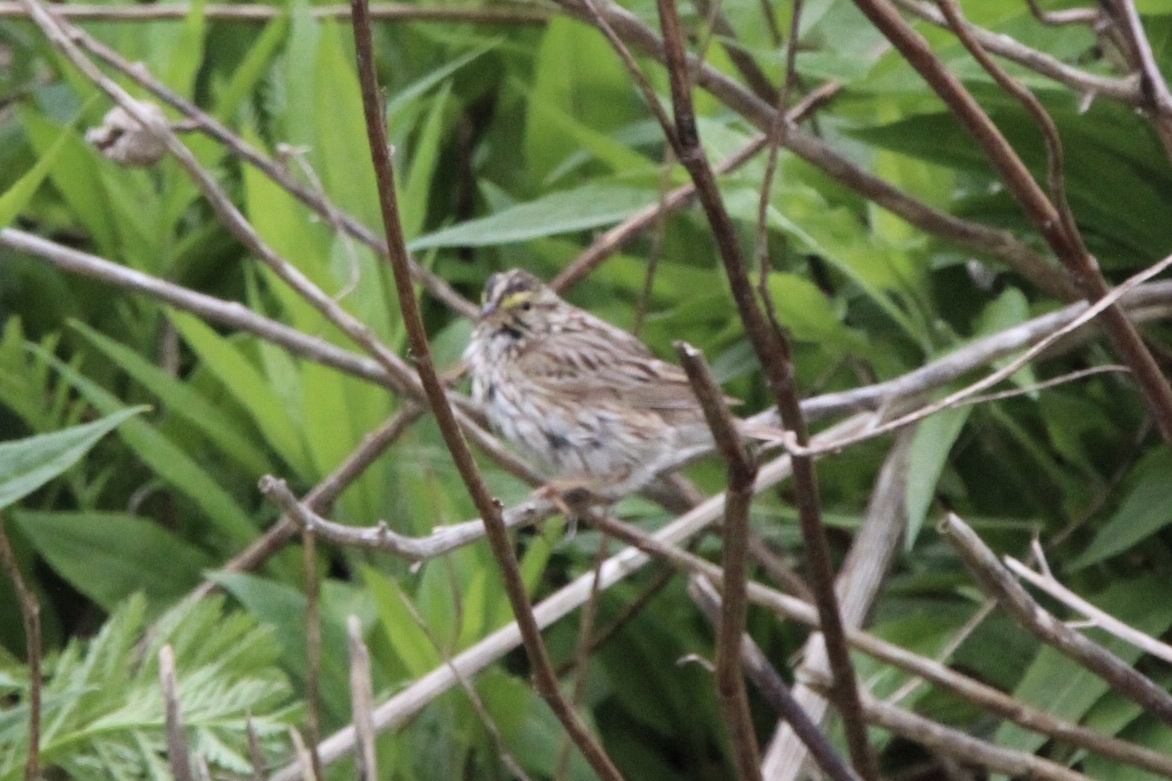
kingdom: Animalia
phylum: Chordata
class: Aves
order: Passeriformes
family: Passerellidae
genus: Passerculus
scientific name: Passerculus sandwichensis
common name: Savannah sparrow
